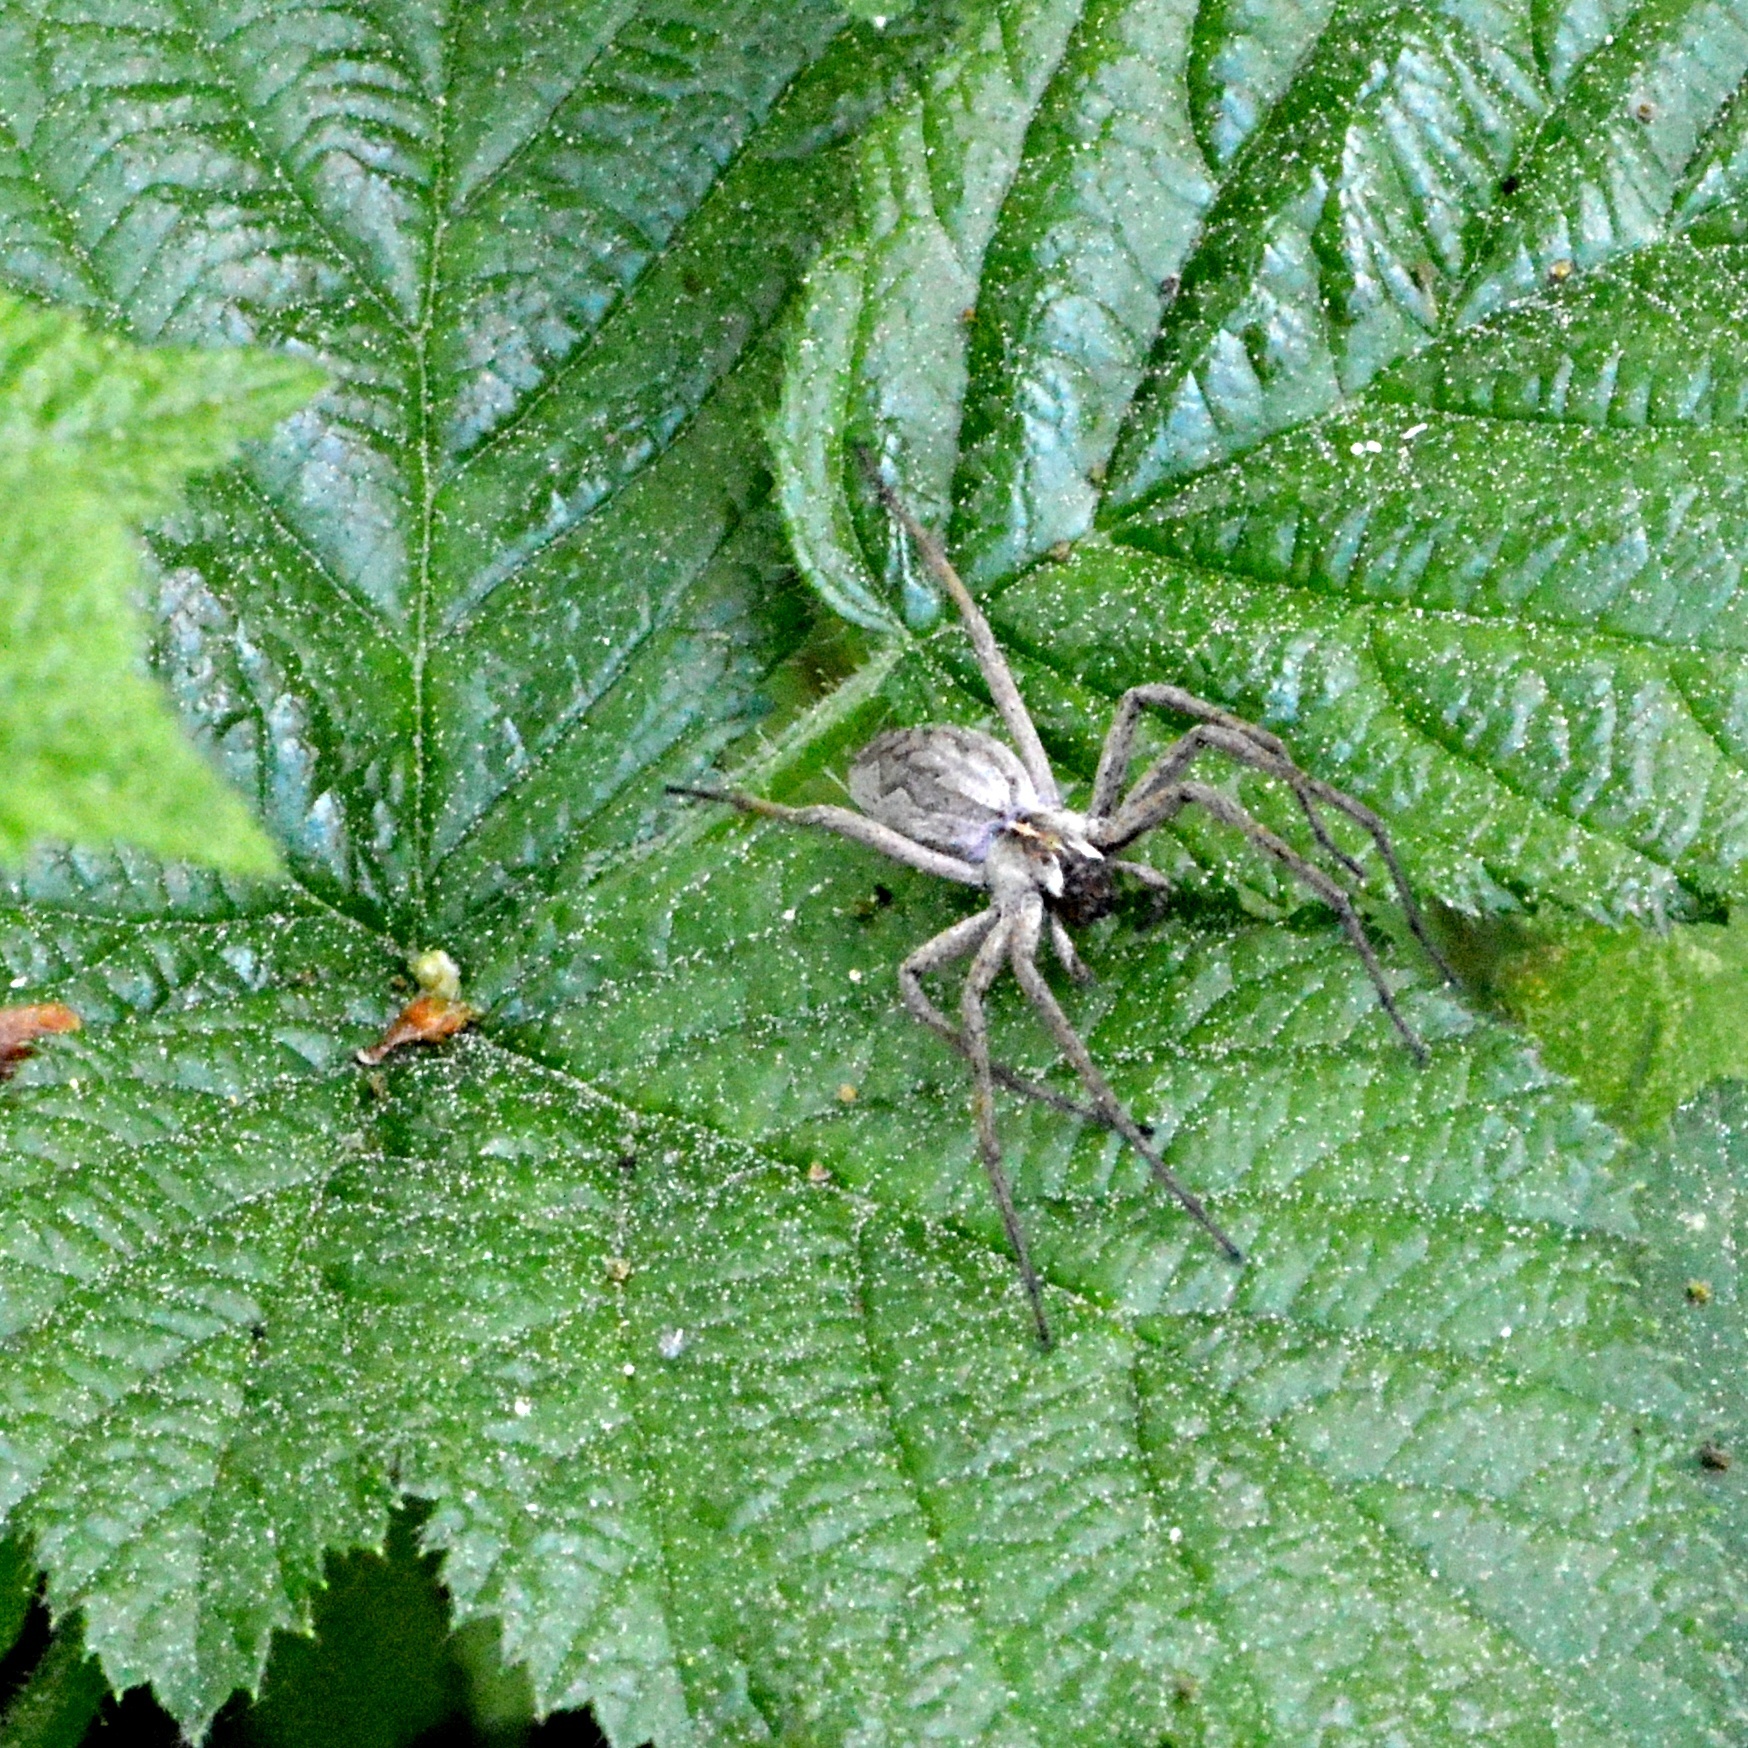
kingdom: Animalia
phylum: Arthropoda
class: Arachnida
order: Araneae
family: Pisauridae
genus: Pisaura
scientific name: Pisaura mirabilis
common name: Tent spider
